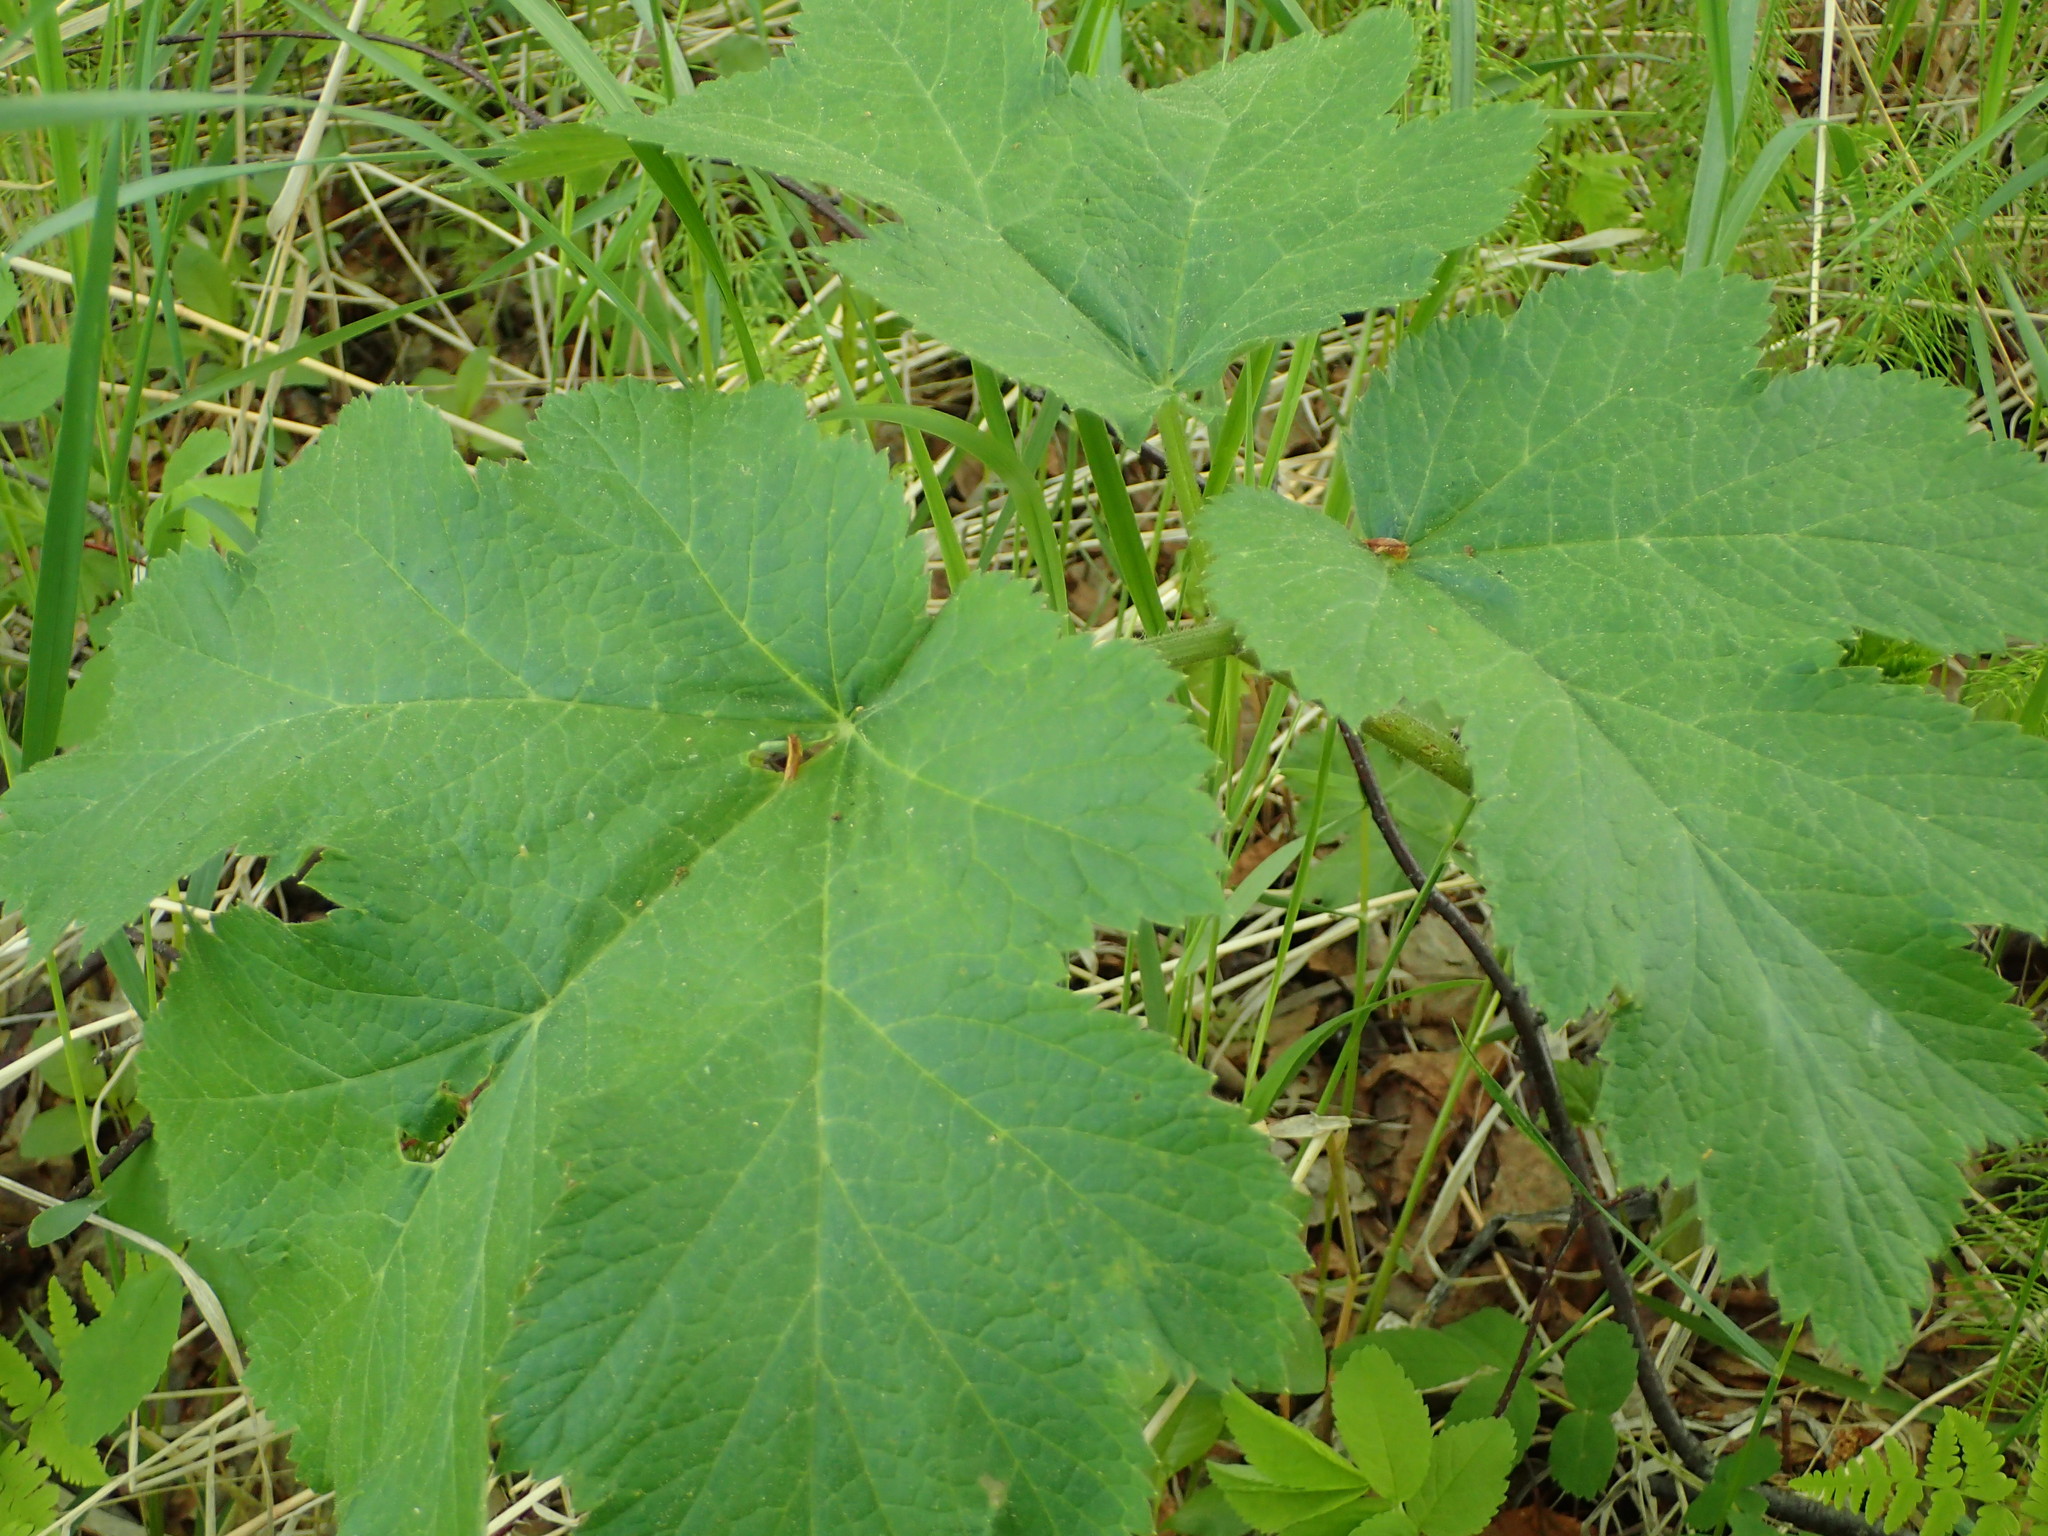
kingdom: Plantae
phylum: Tracheophyta
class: Magnoliopsida
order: Apiales
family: Apiaceae
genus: Heracleum
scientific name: Heracleum maximum
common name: American cow parsnip
